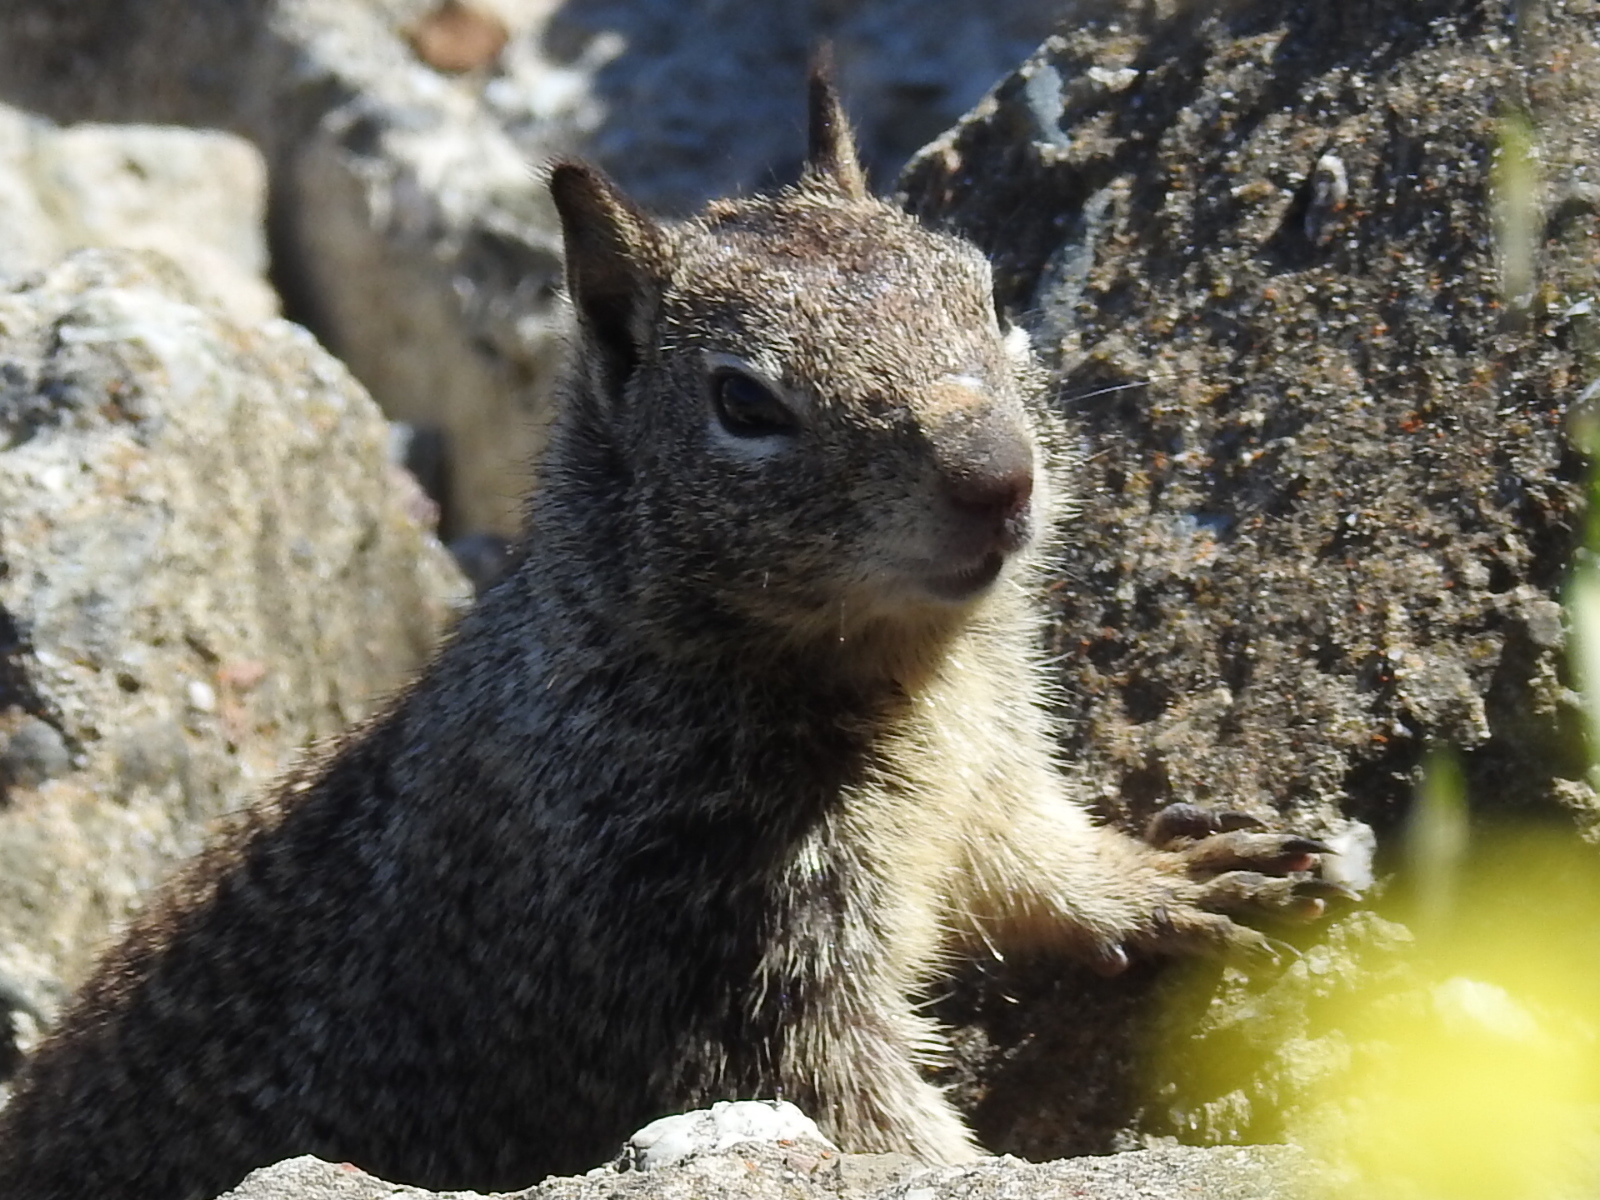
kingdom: Animalia
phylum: Chordata
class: Mammalia
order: Rodentia
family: Sciuridae
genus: Otospermophilus
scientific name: Otospermophilus beecheyi
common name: California ground squirrel
